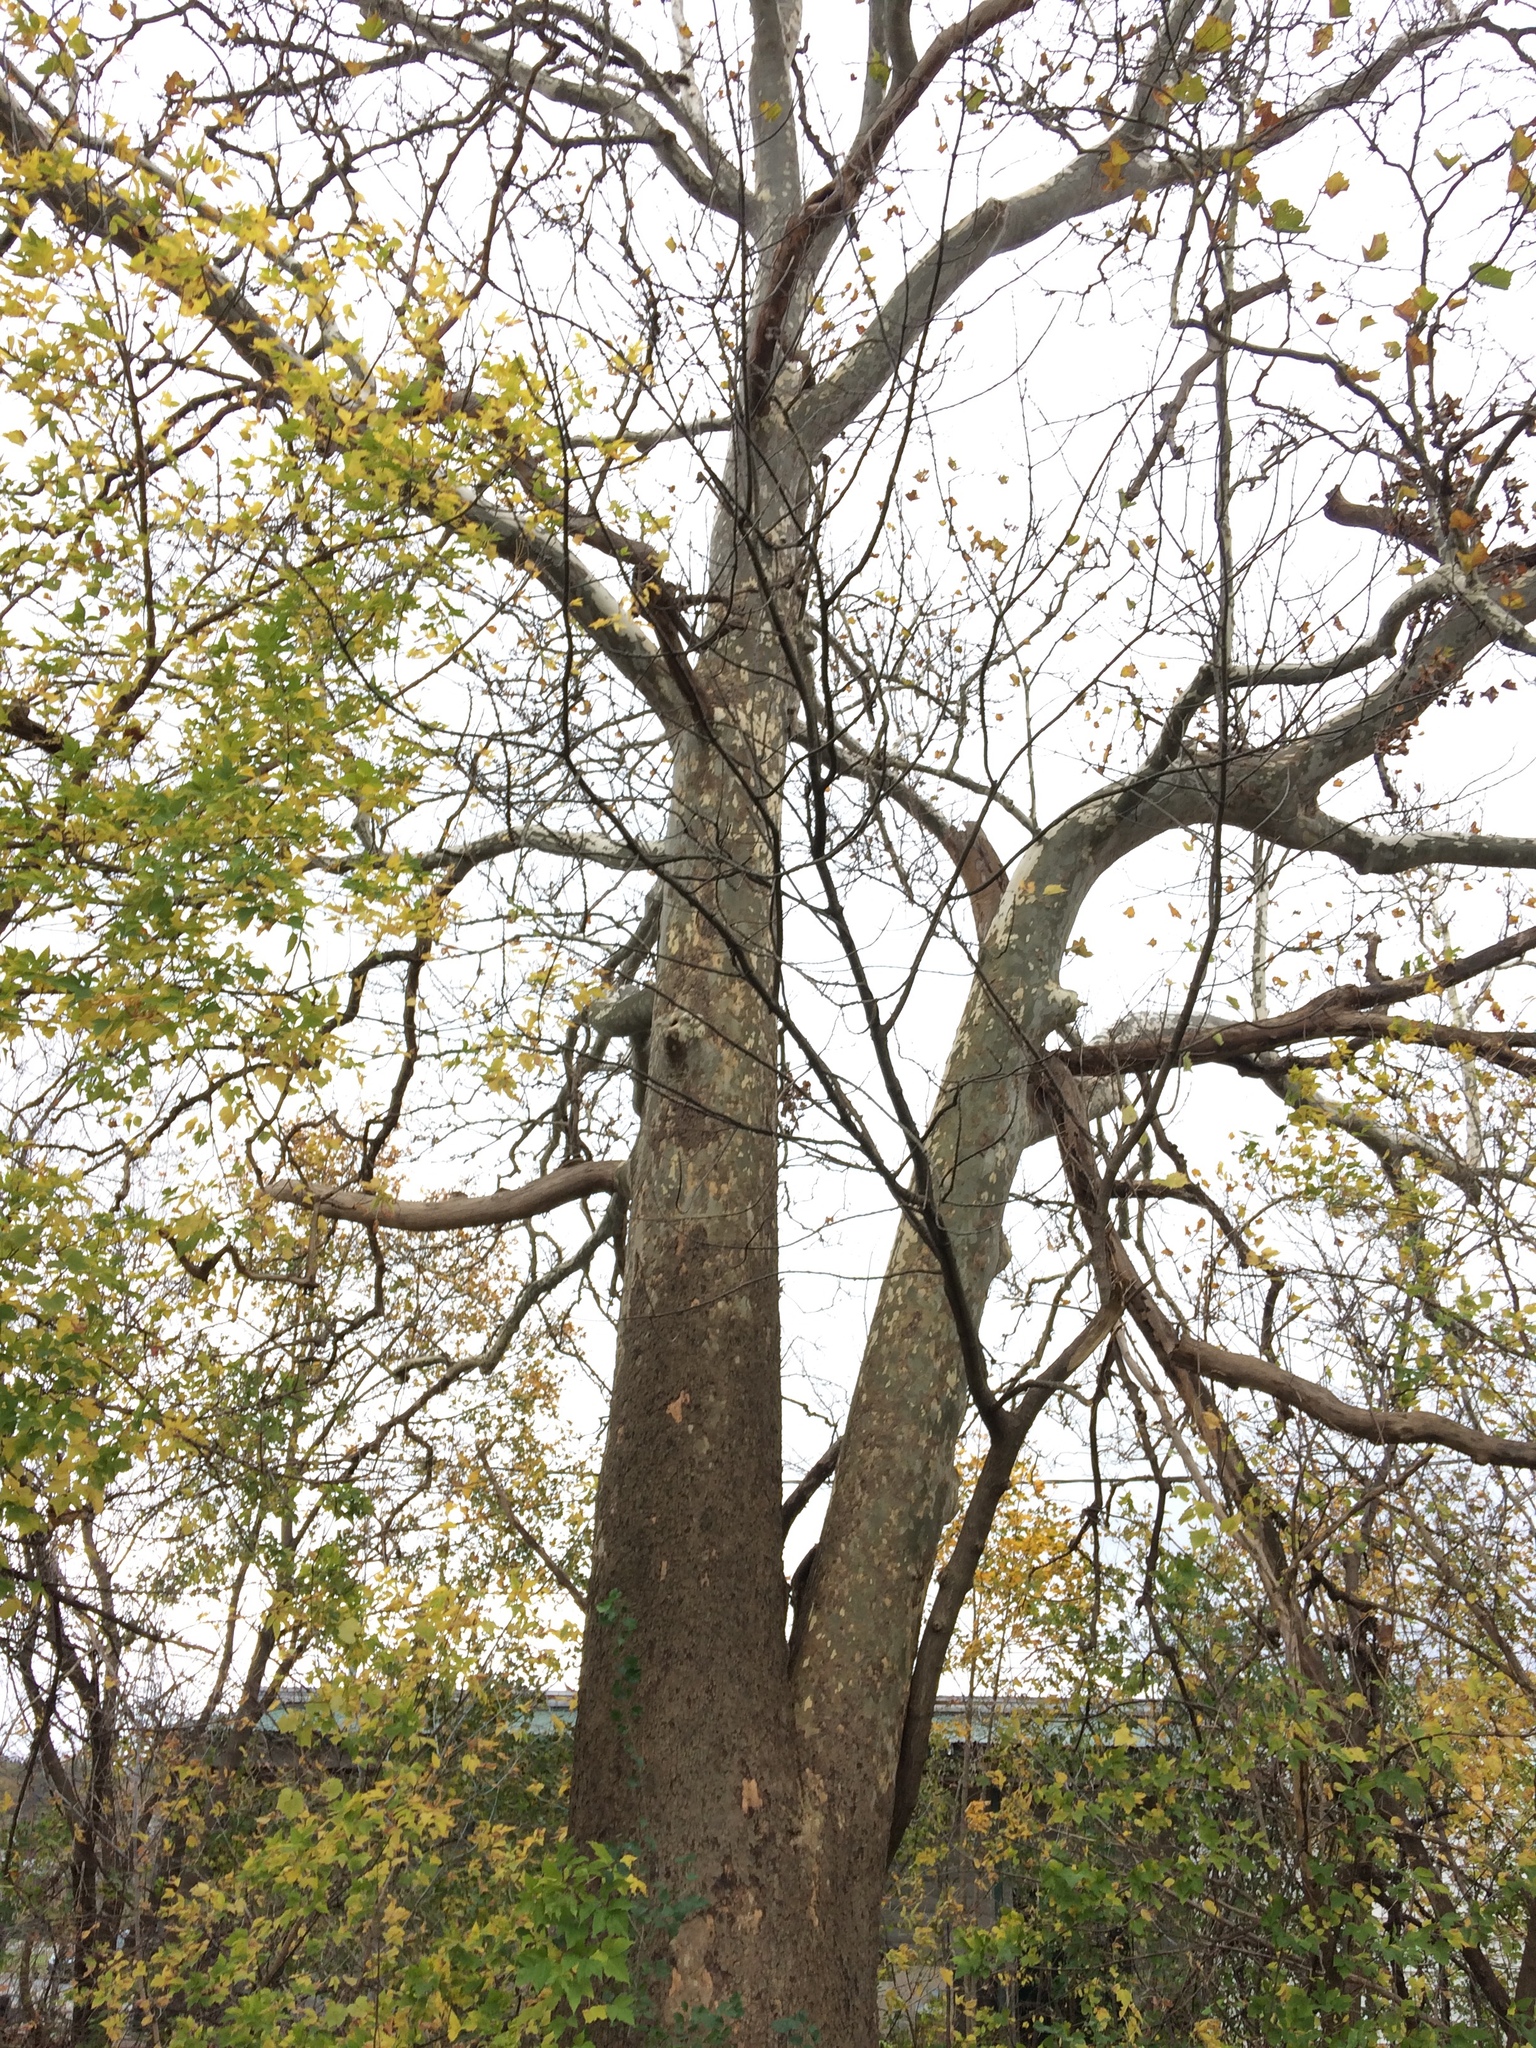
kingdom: Plantae
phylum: Tracheophyta
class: Magnoliopsida
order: Proteales
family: Platanaceae
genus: Platanus
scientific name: Platanus occidentalis
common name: American sycamore
